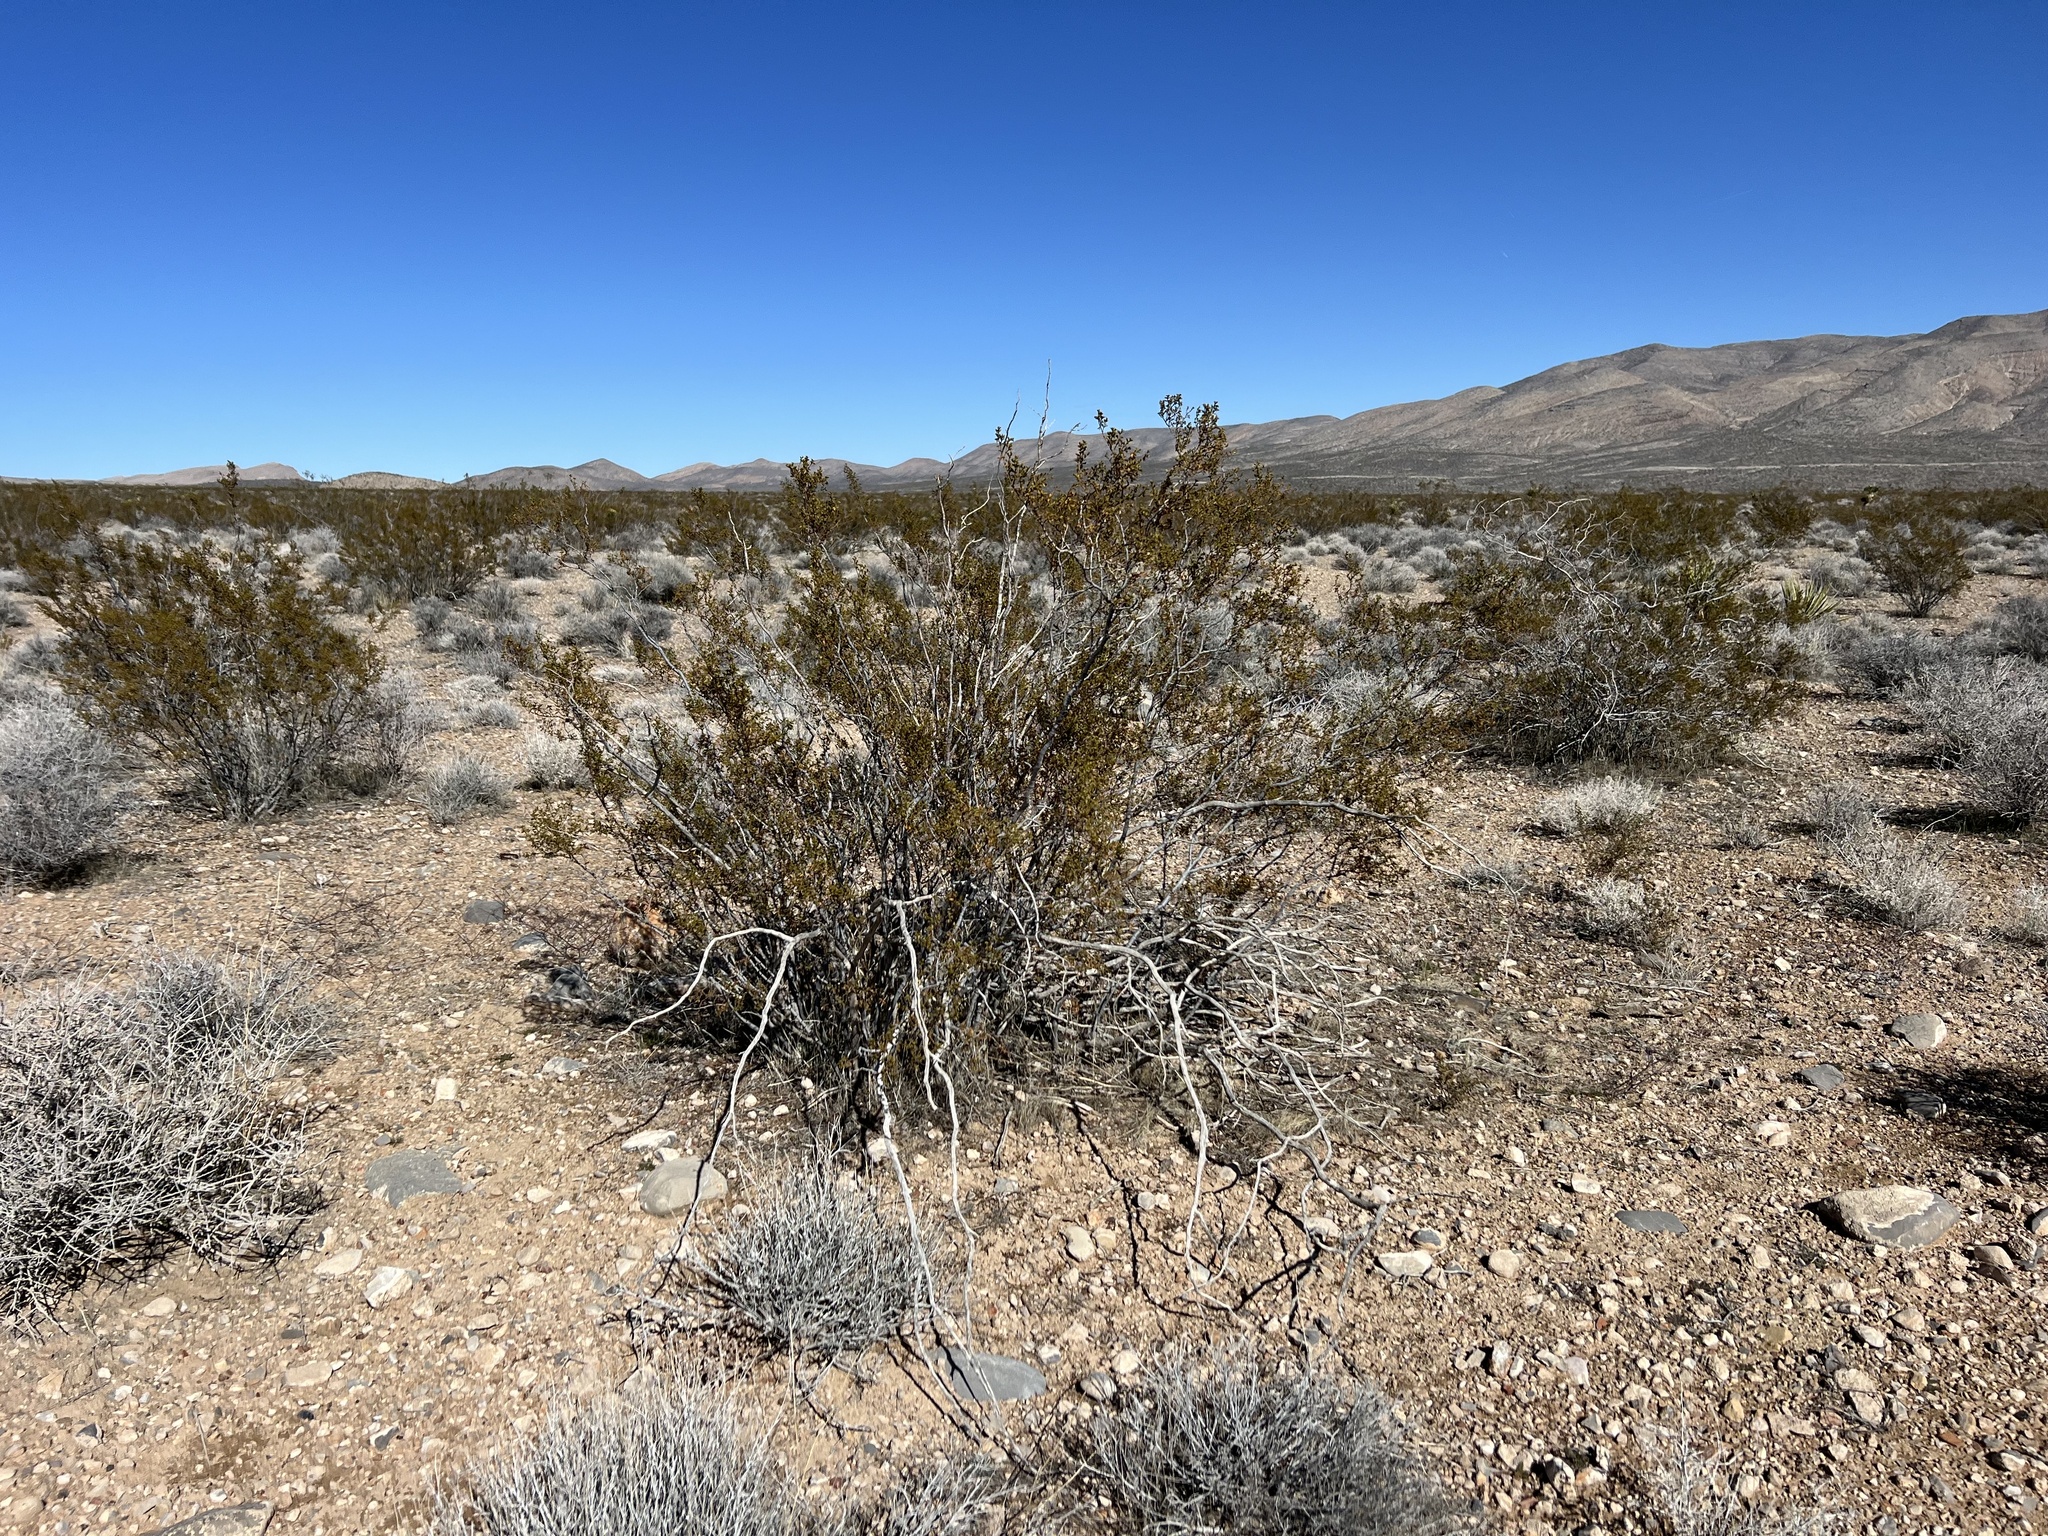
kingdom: Plantae
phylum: Tracheophyta
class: Magnoliopsida
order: Zygophyllales
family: Zygophyllaceae
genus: Larrea
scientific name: Larrea tridentata
